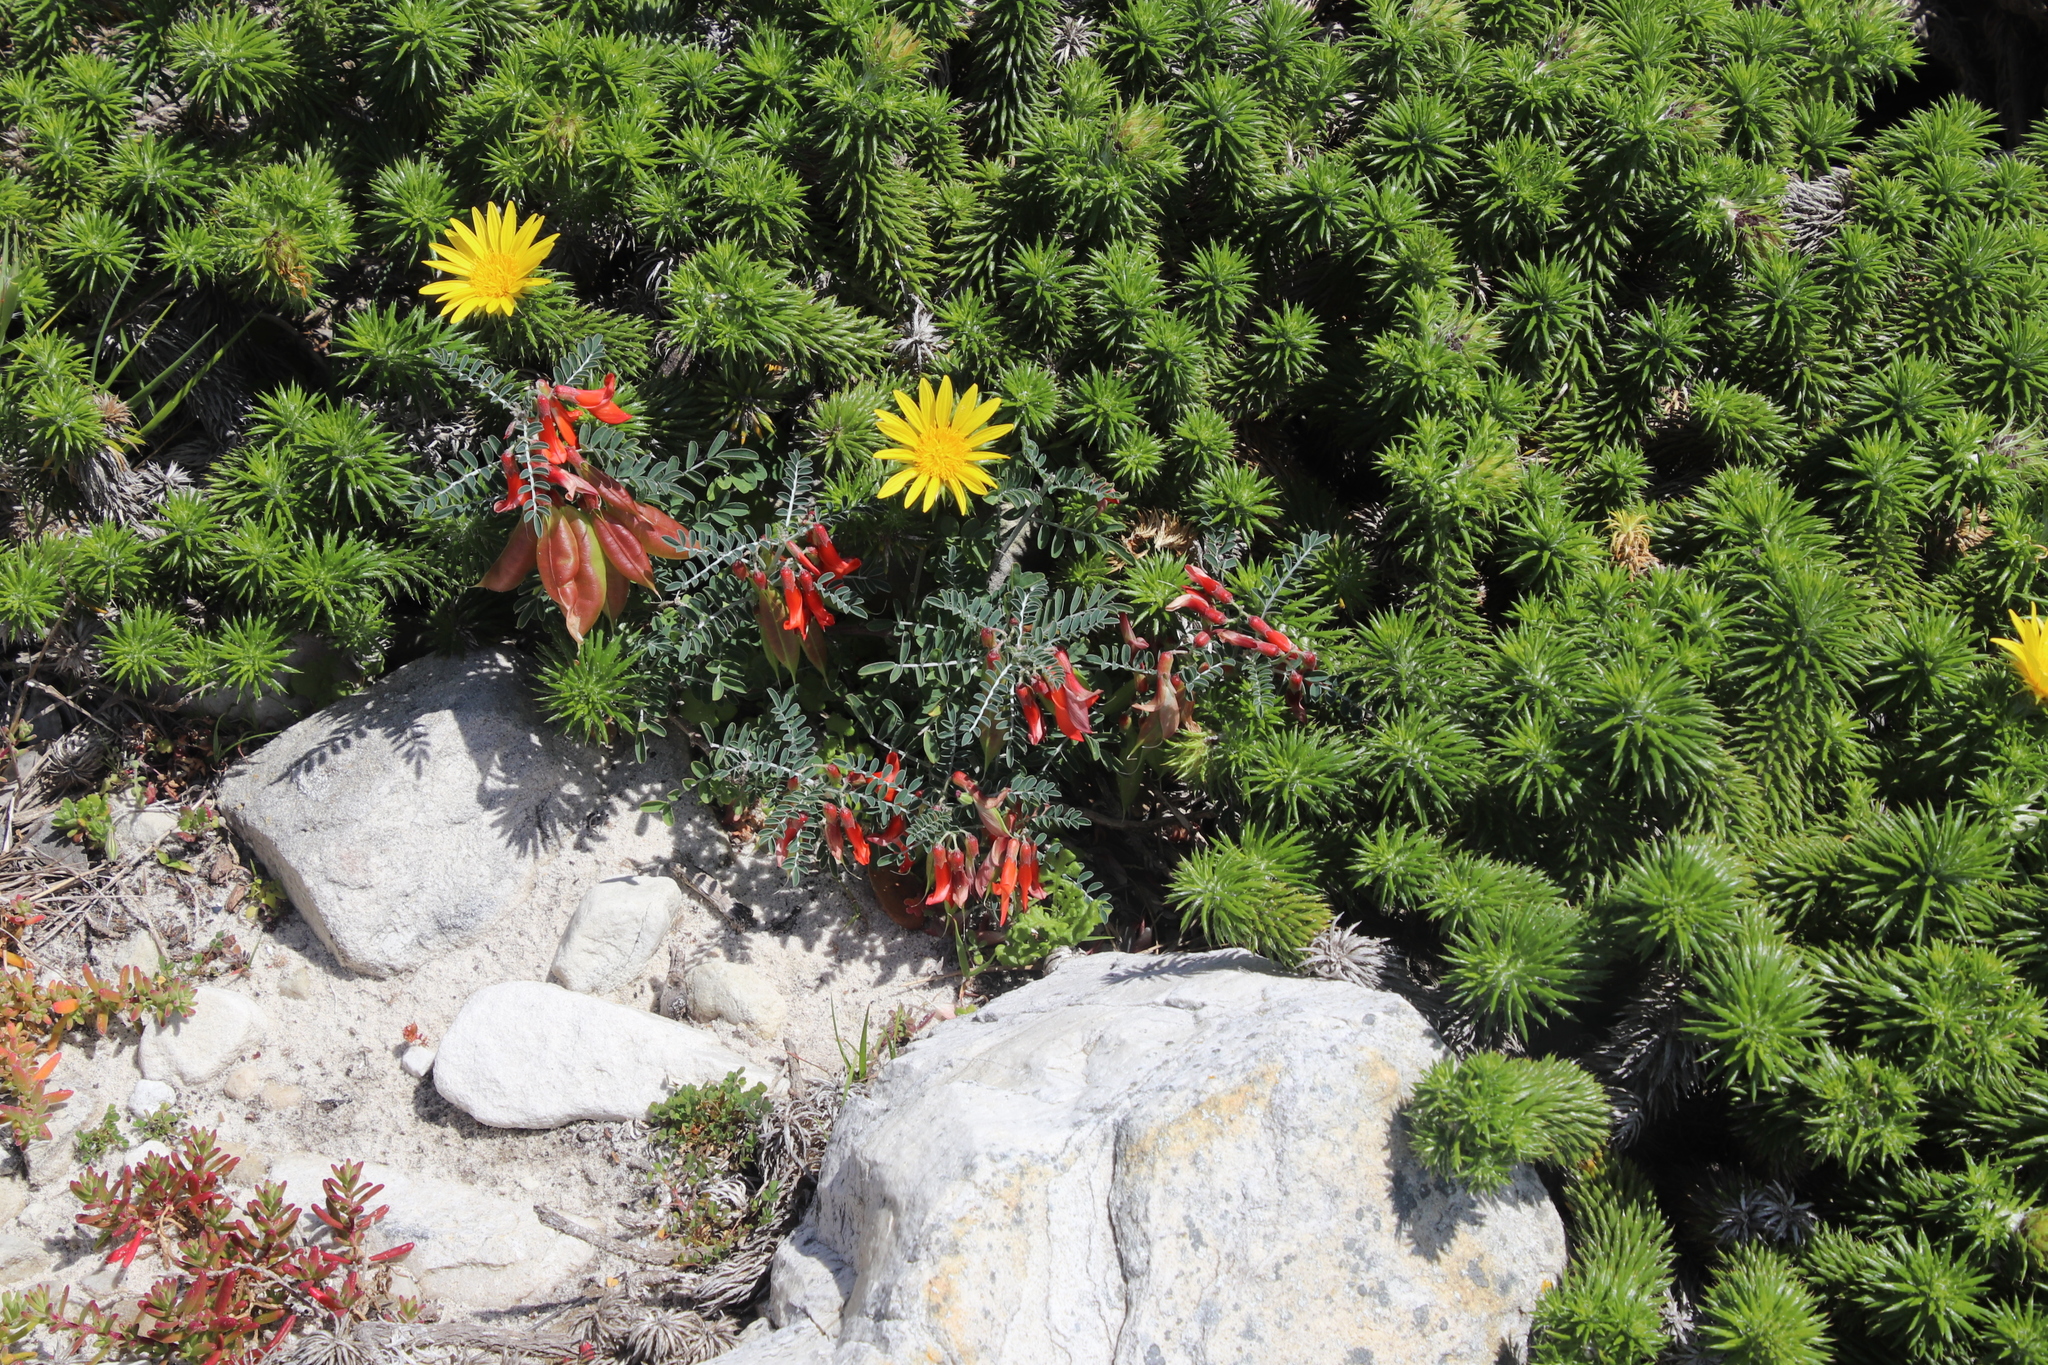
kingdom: Plantae
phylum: Tracheophyta
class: Magnoliopsida
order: Fabales
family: Fabaceae
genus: Lessertia
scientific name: Lessertia frutescens
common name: Balloon-pea
